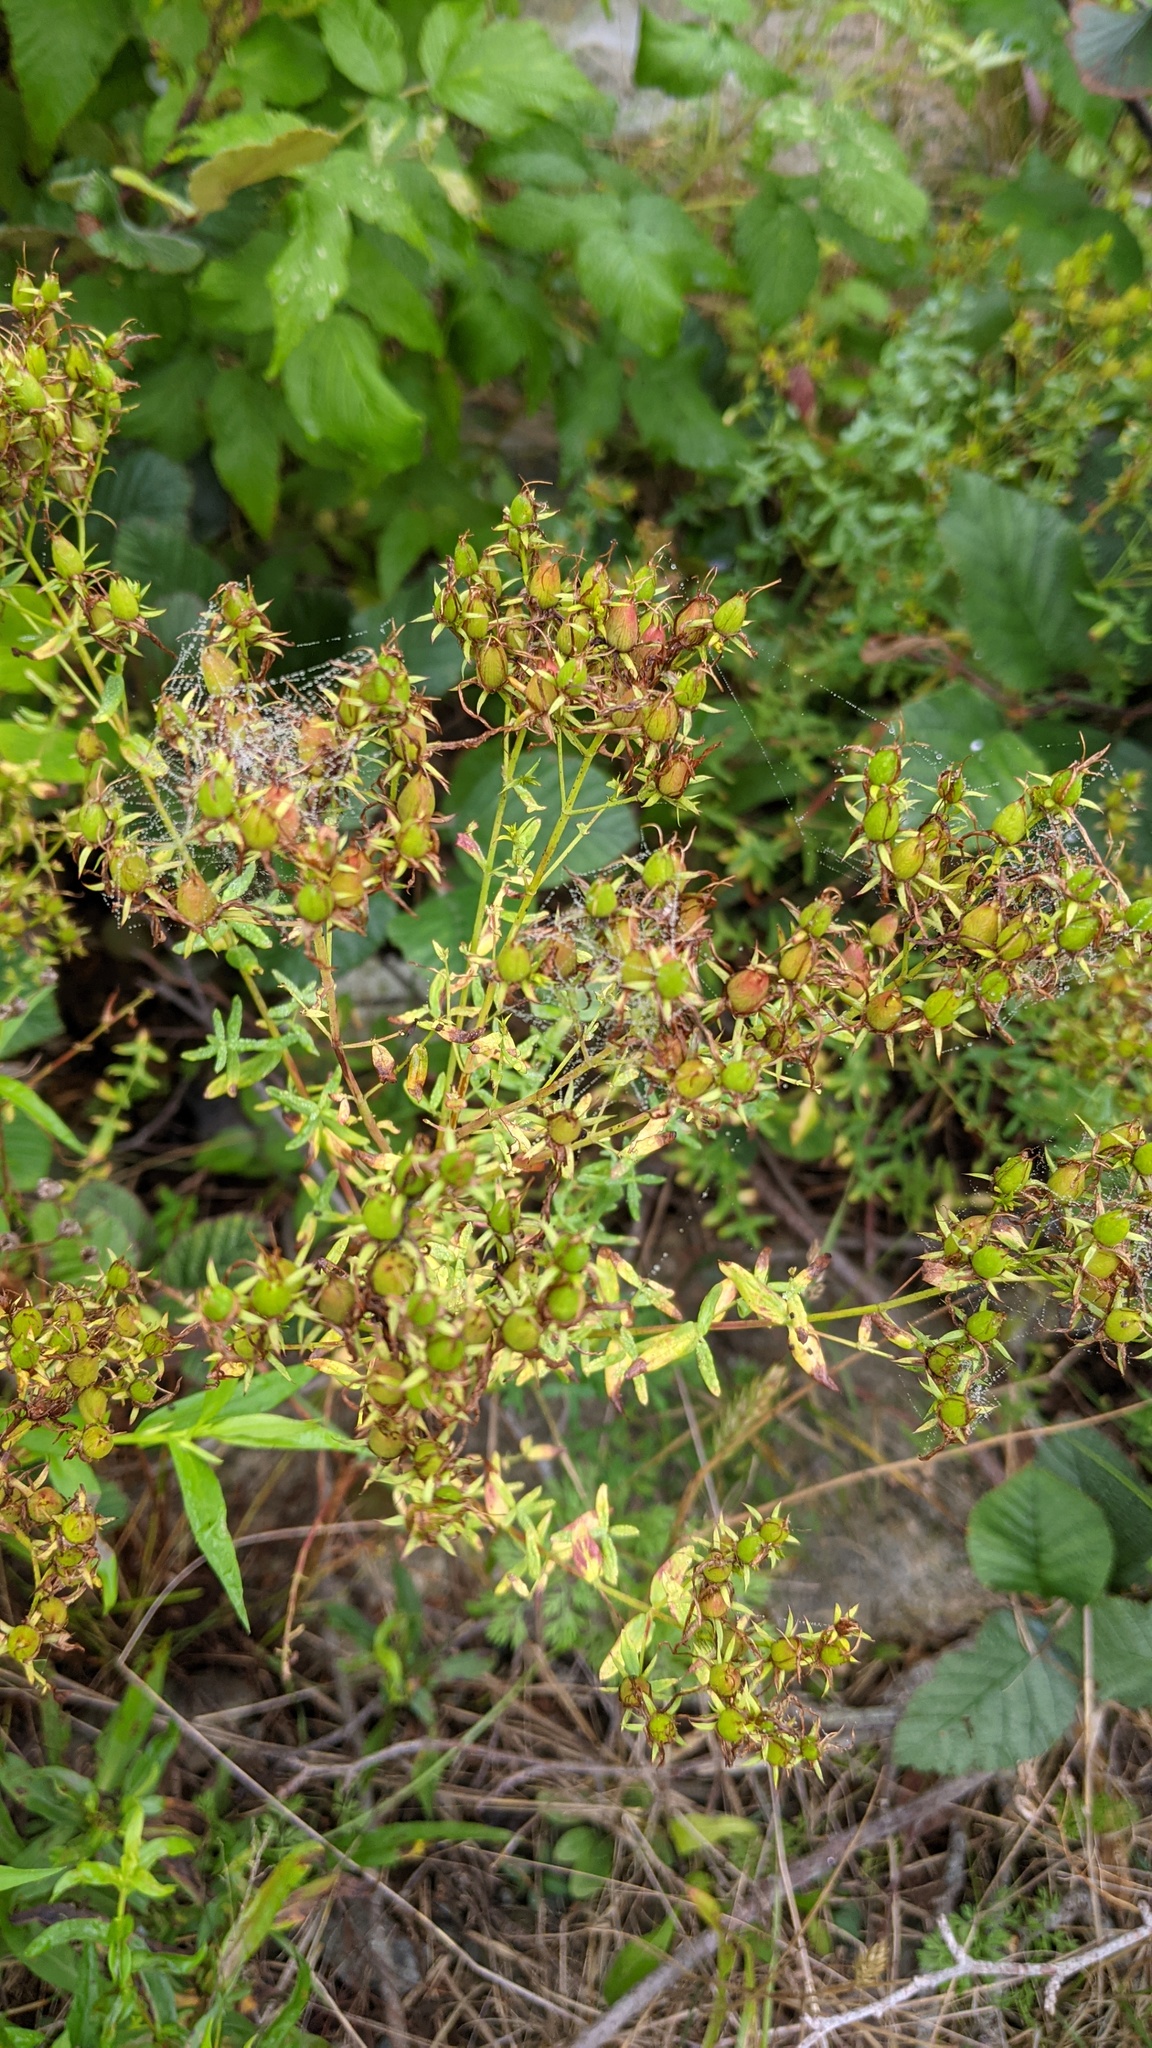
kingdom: Plantae
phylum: Tracheophyta
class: Magnoliopsida
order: Malpighiales
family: Hypericaceae
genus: Hypericum
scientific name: Hypericum perforatum
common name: Common st. johnswort
